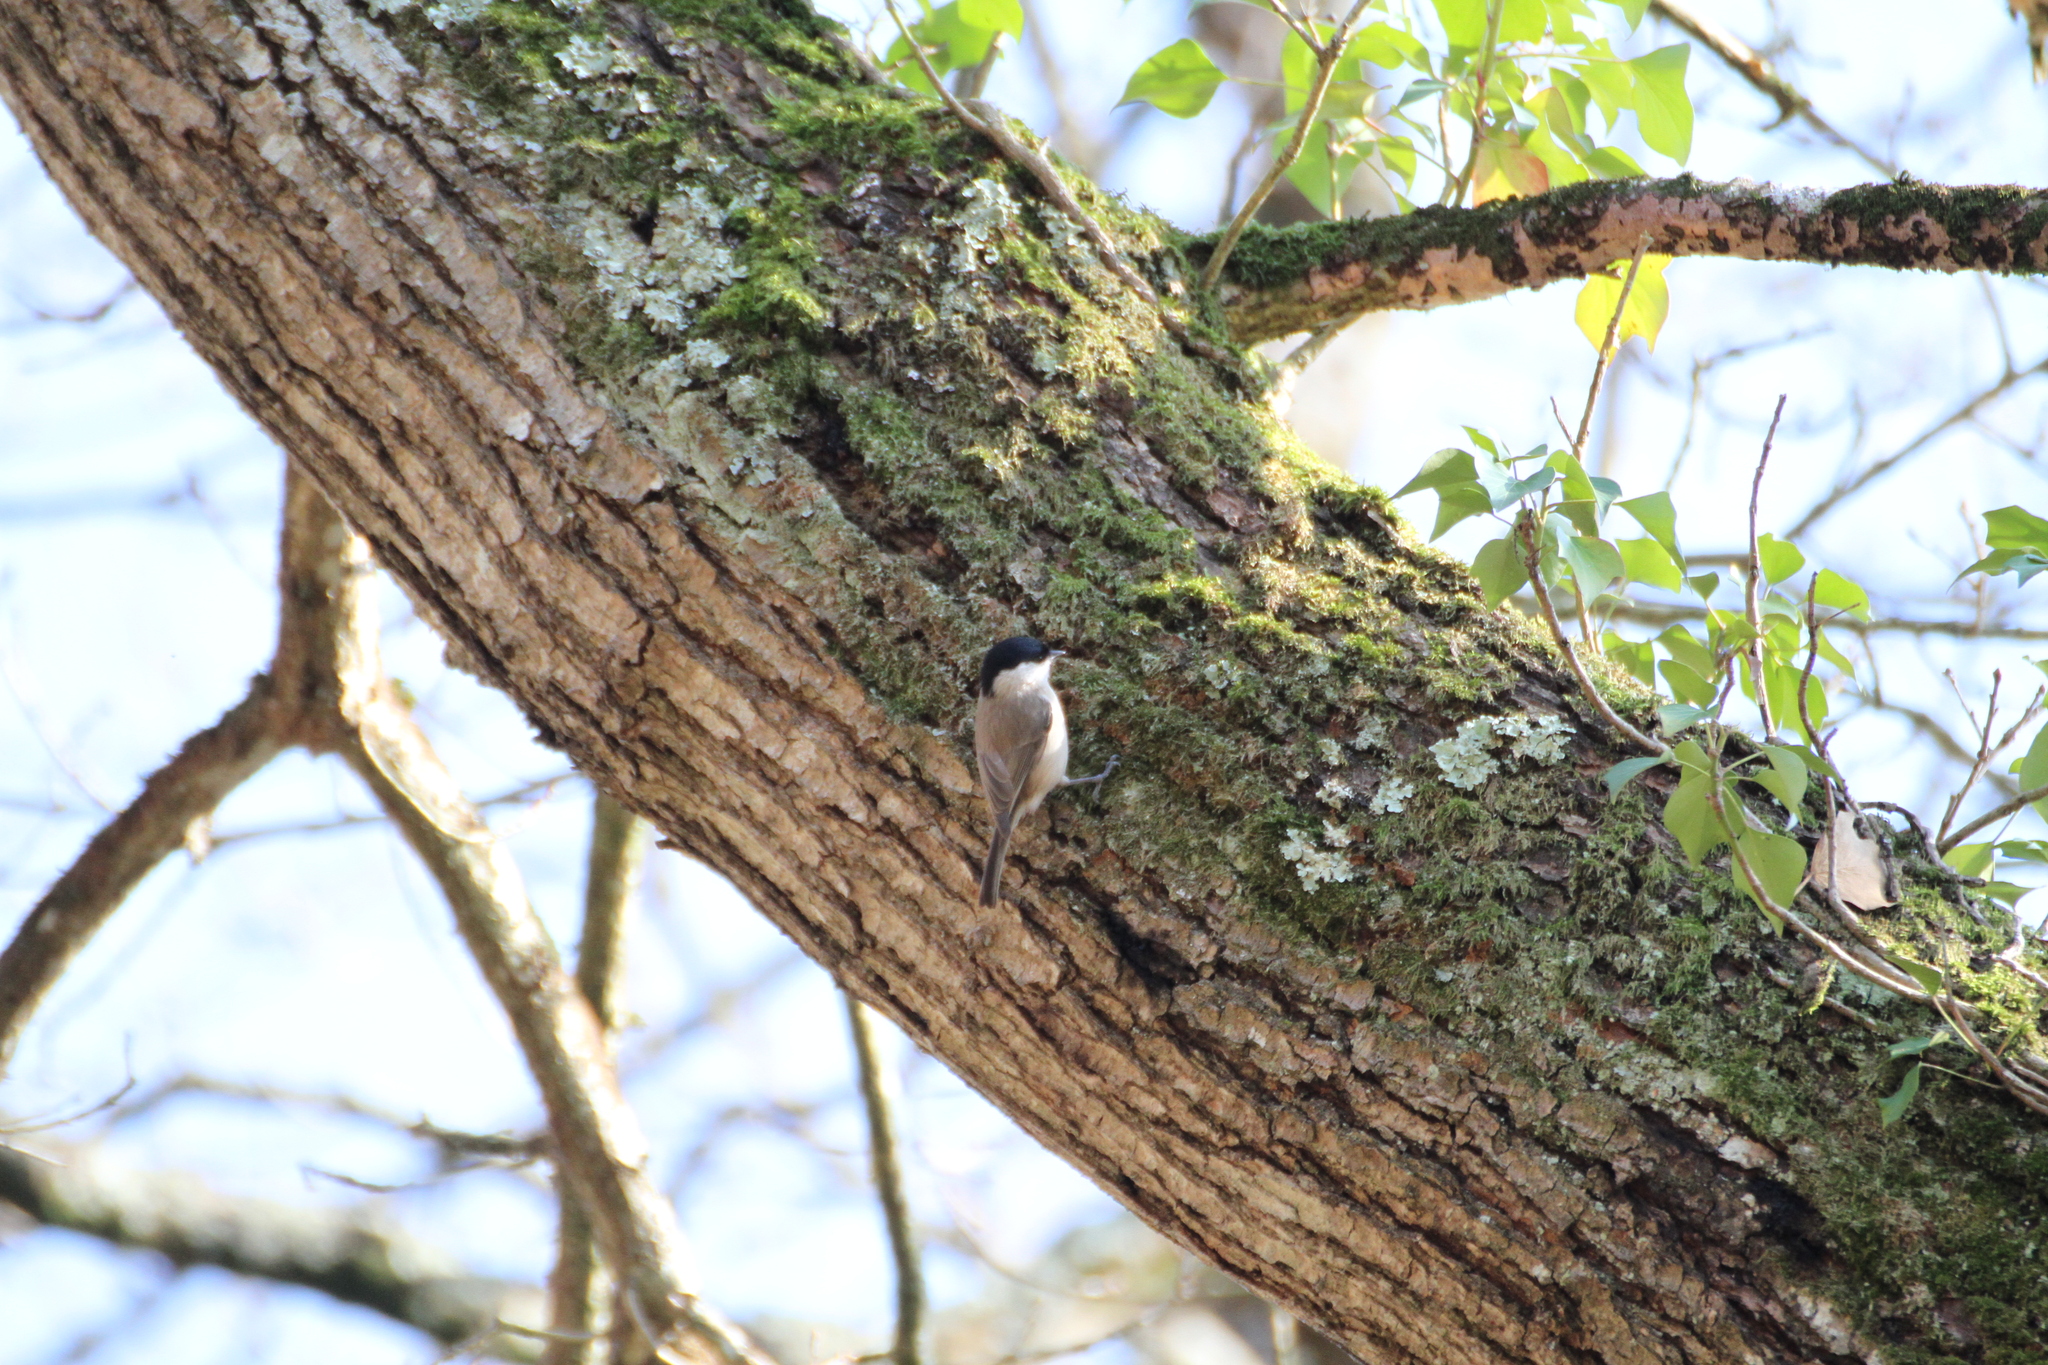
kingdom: Animalia
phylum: Chordata
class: Aves
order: Passeriformes
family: Paridae
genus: Poecile
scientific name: Poecile palustris
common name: Marsh tit
